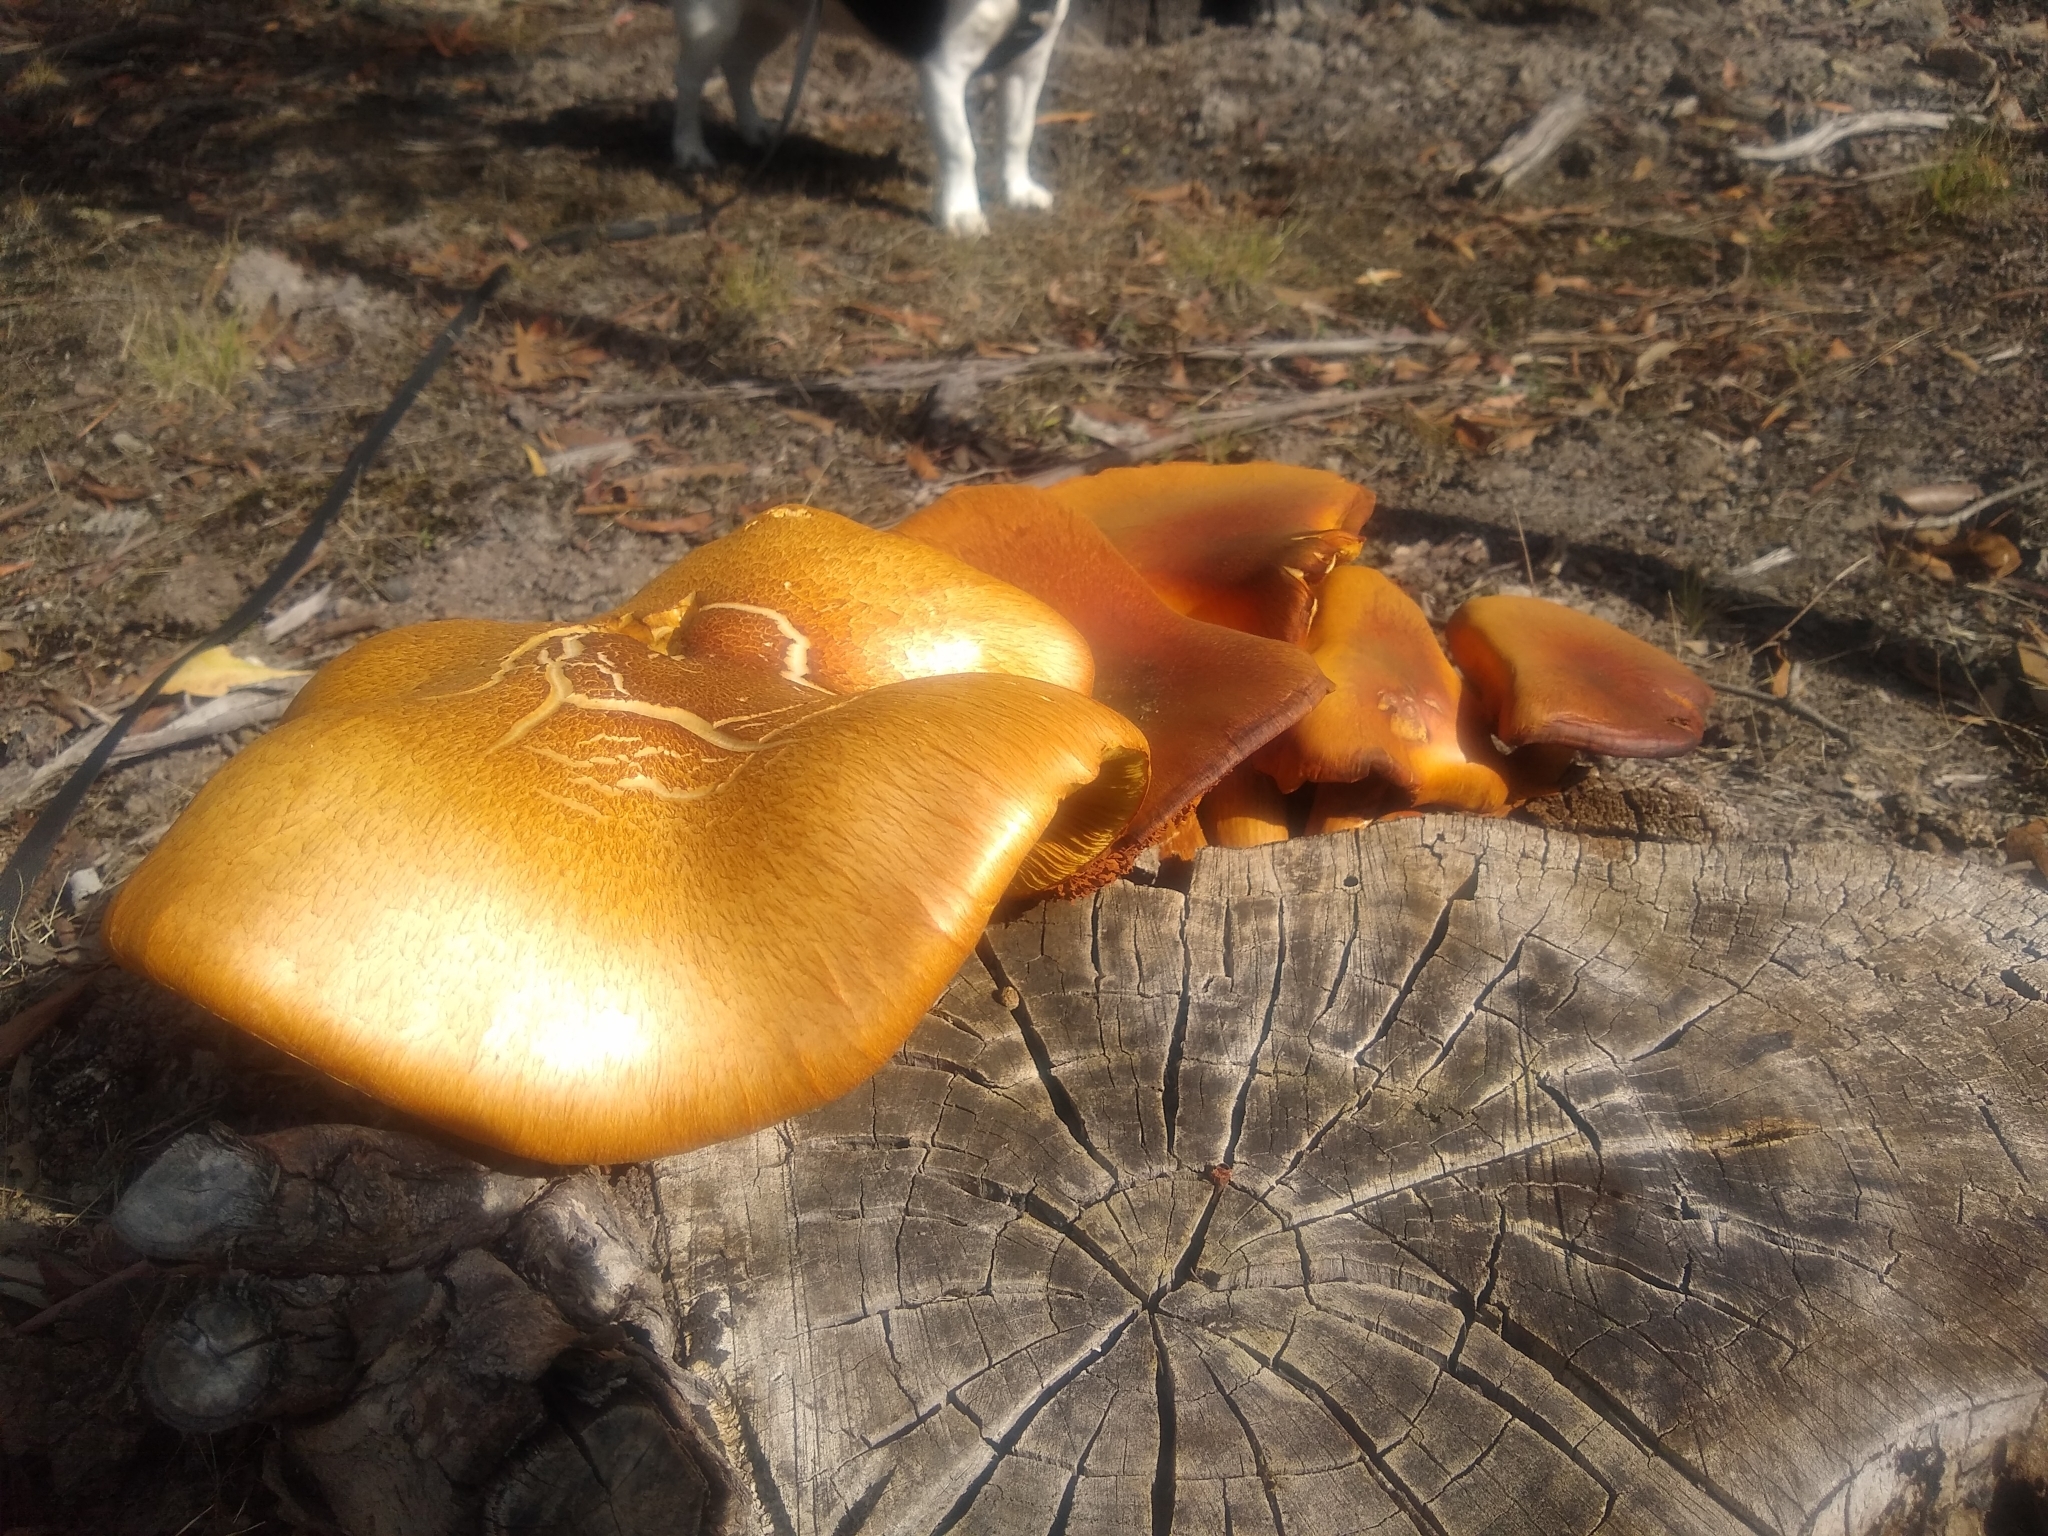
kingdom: Fungi
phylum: Basidiomycota
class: Agaricomycetes
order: Agaricales
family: Hymenogastraceae
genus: Gymnopilus
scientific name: Gymnopilus junonius
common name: Spectacular rustgill
